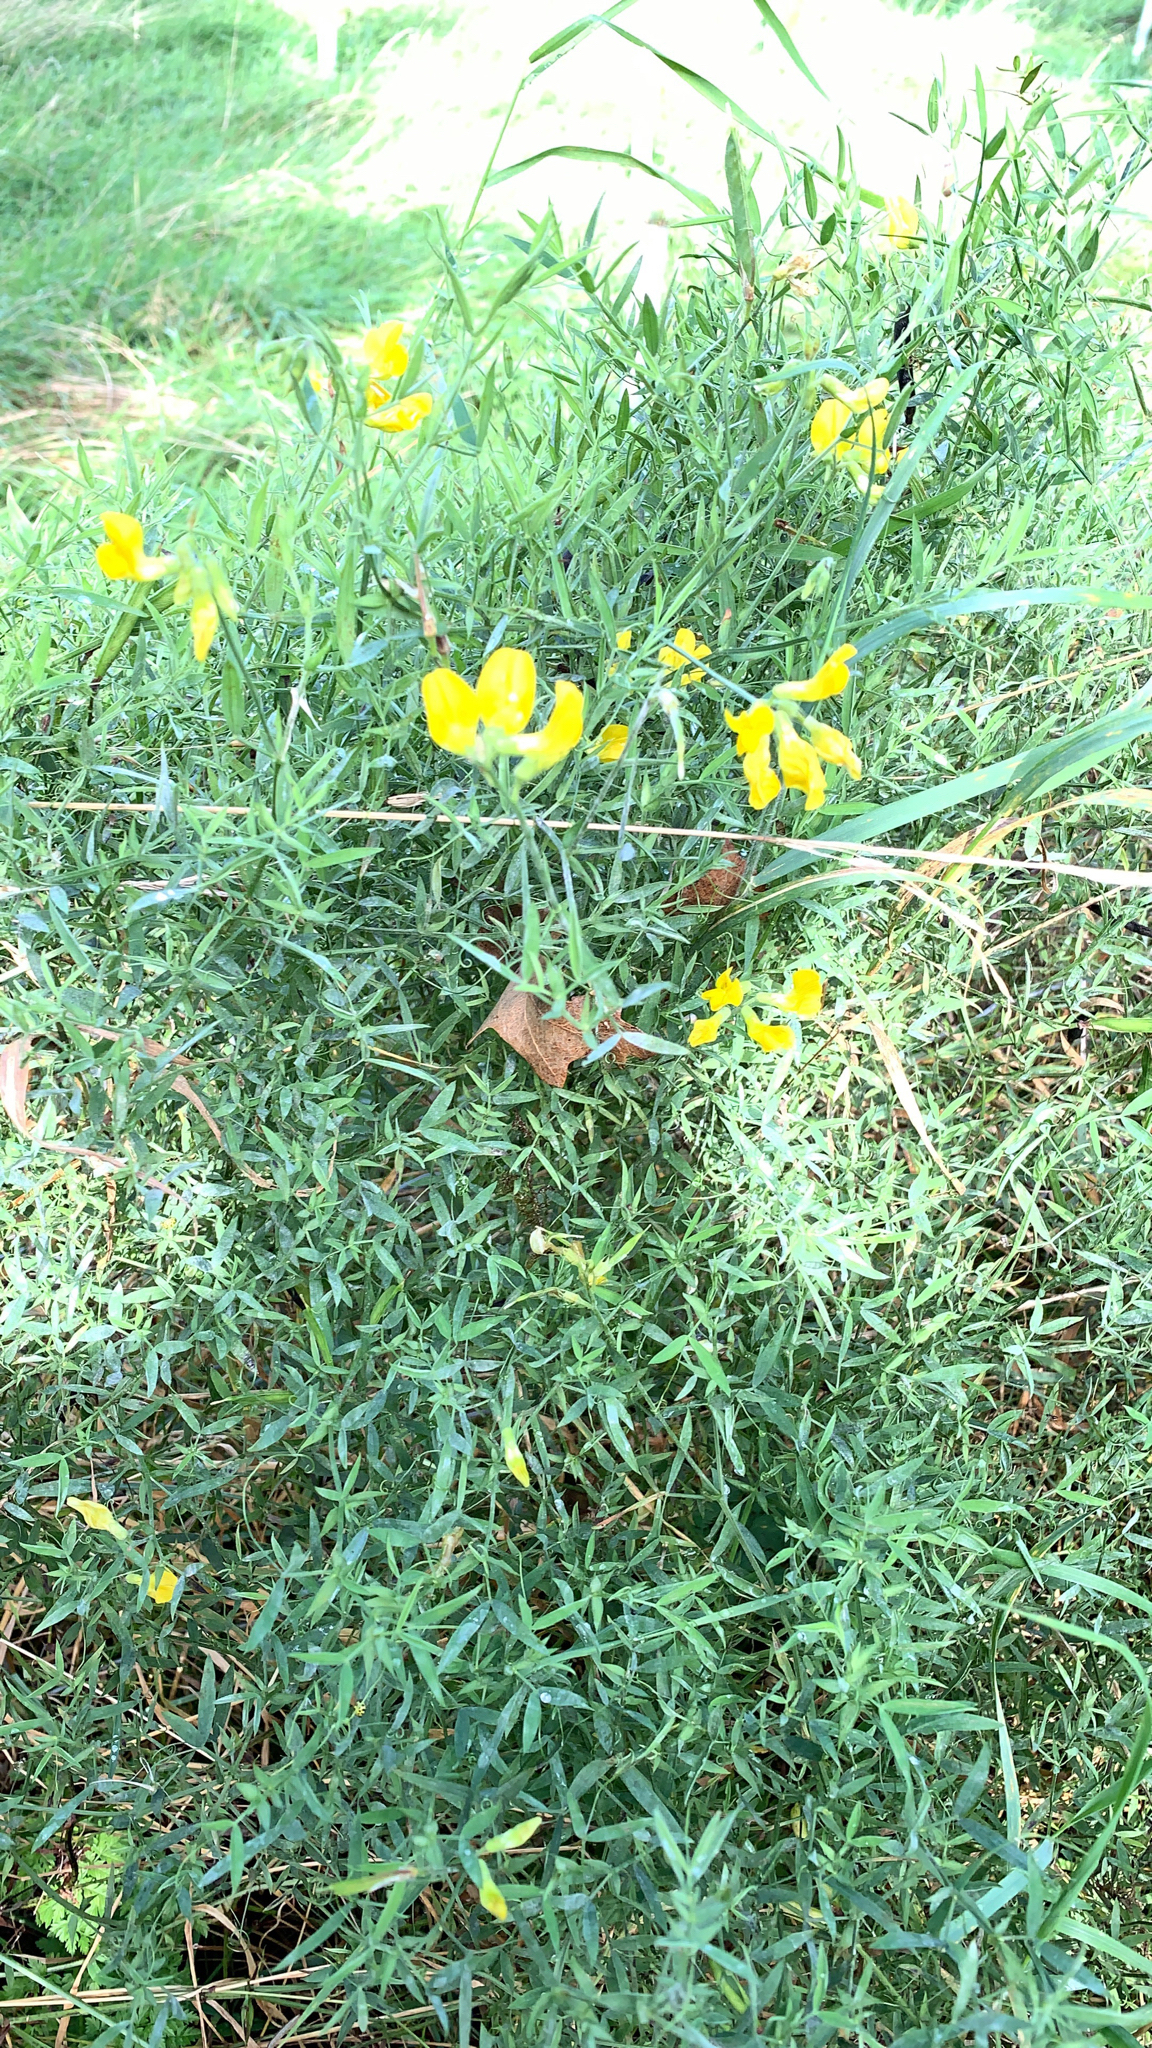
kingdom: Plantae
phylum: Tracheophyta
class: Magnoliopsida
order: Fabales
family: Fabaceae
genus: Lathyrus
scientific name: Lathyrus pratensis
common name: Meadow vetchling
